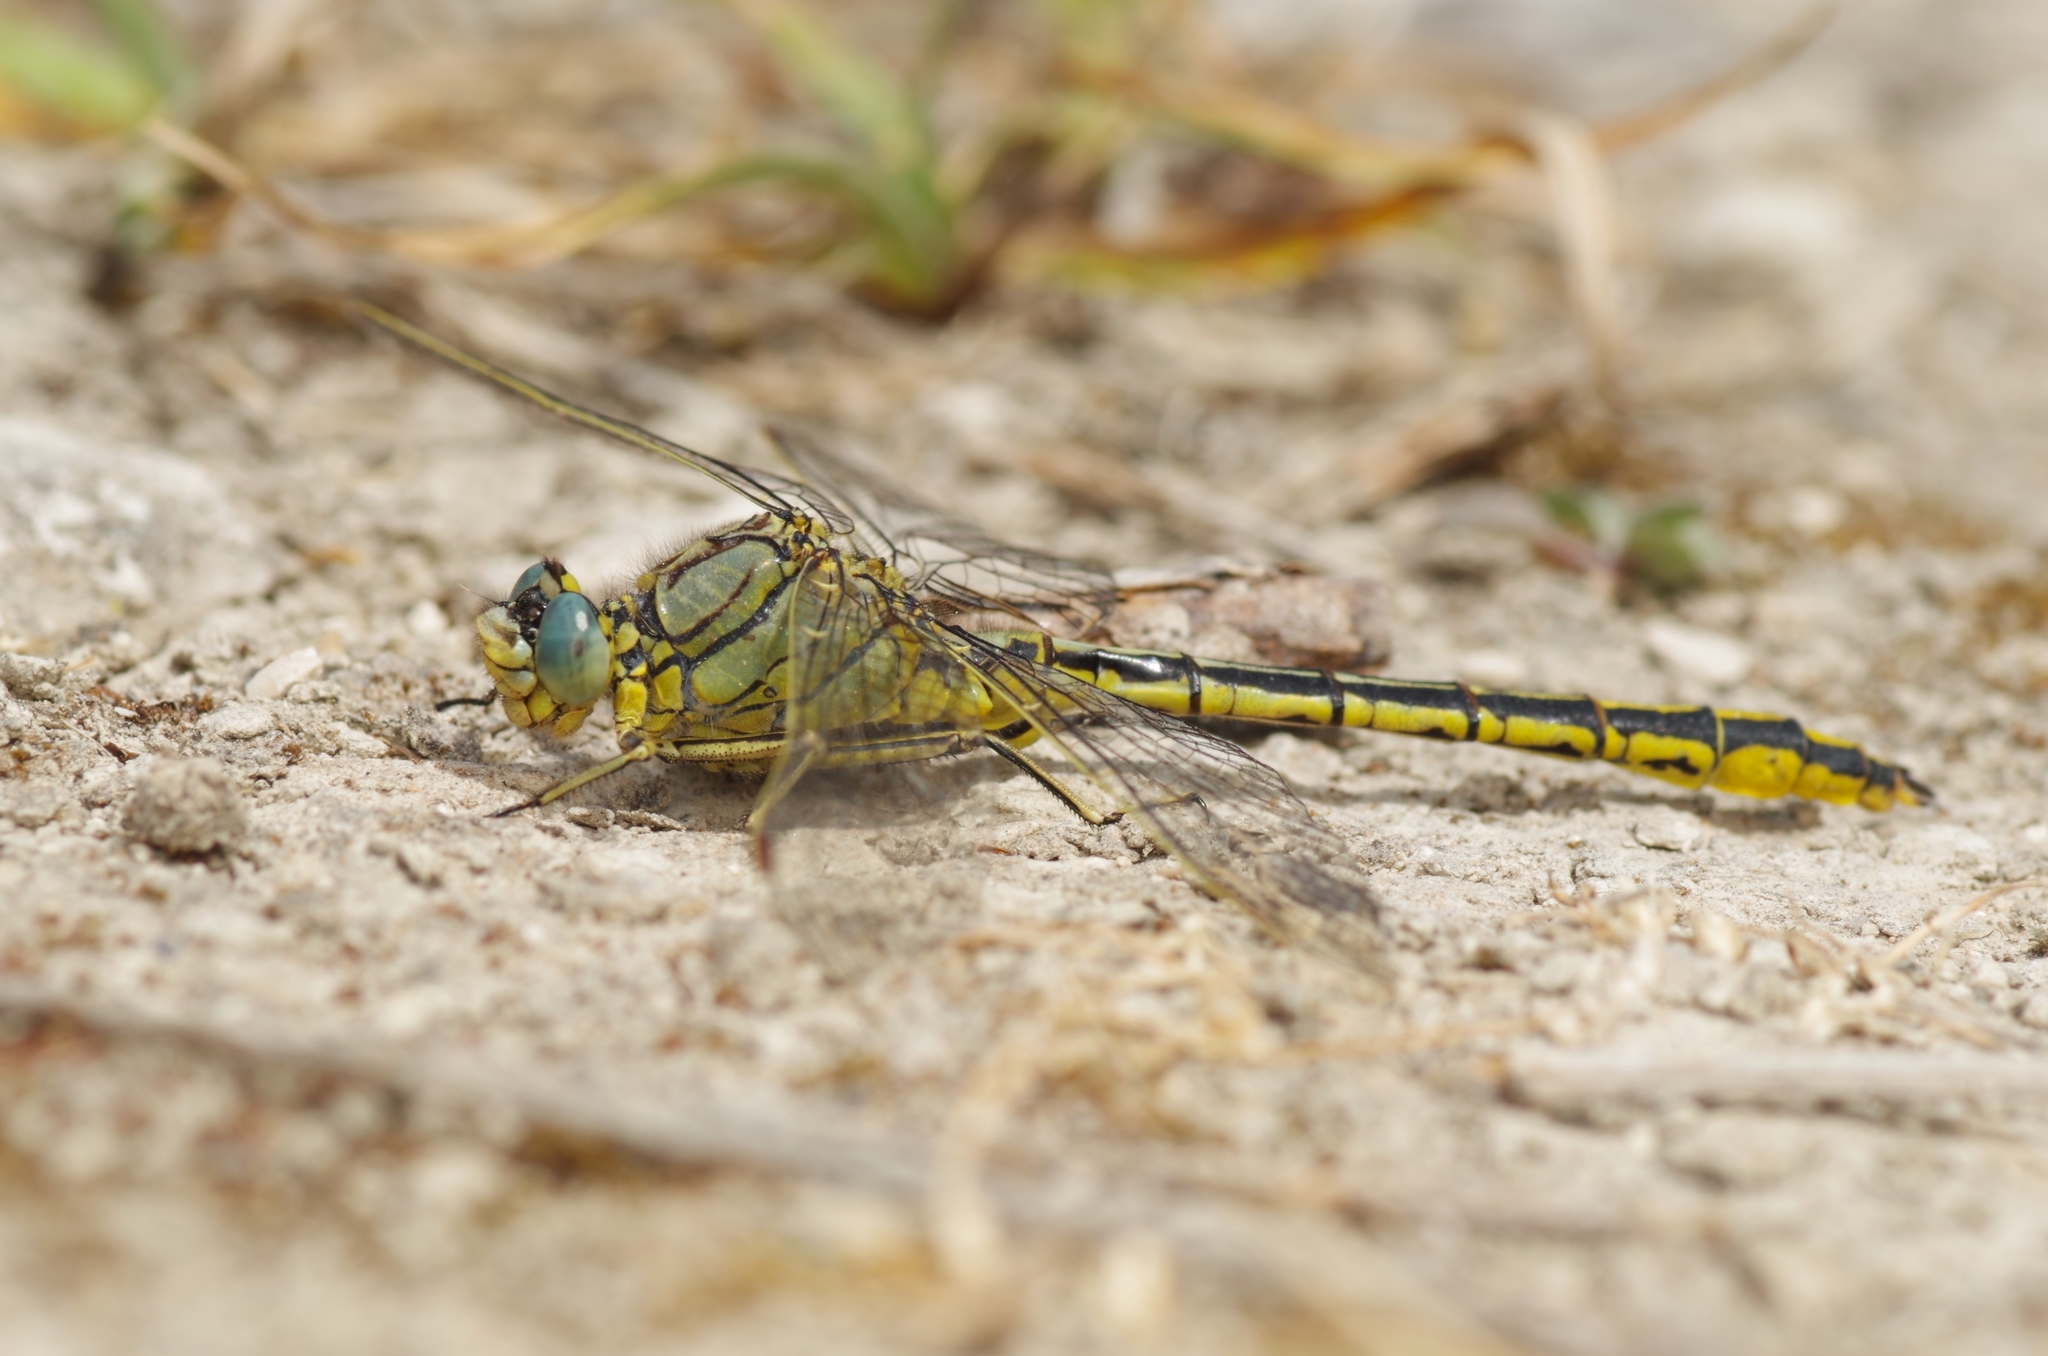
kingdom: Animalia
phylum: Arthropoda
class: Insecta
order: Odonata
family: Gomphidae
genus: Gomphus
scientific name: Gomphus pulchellus
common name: Western clubtail
